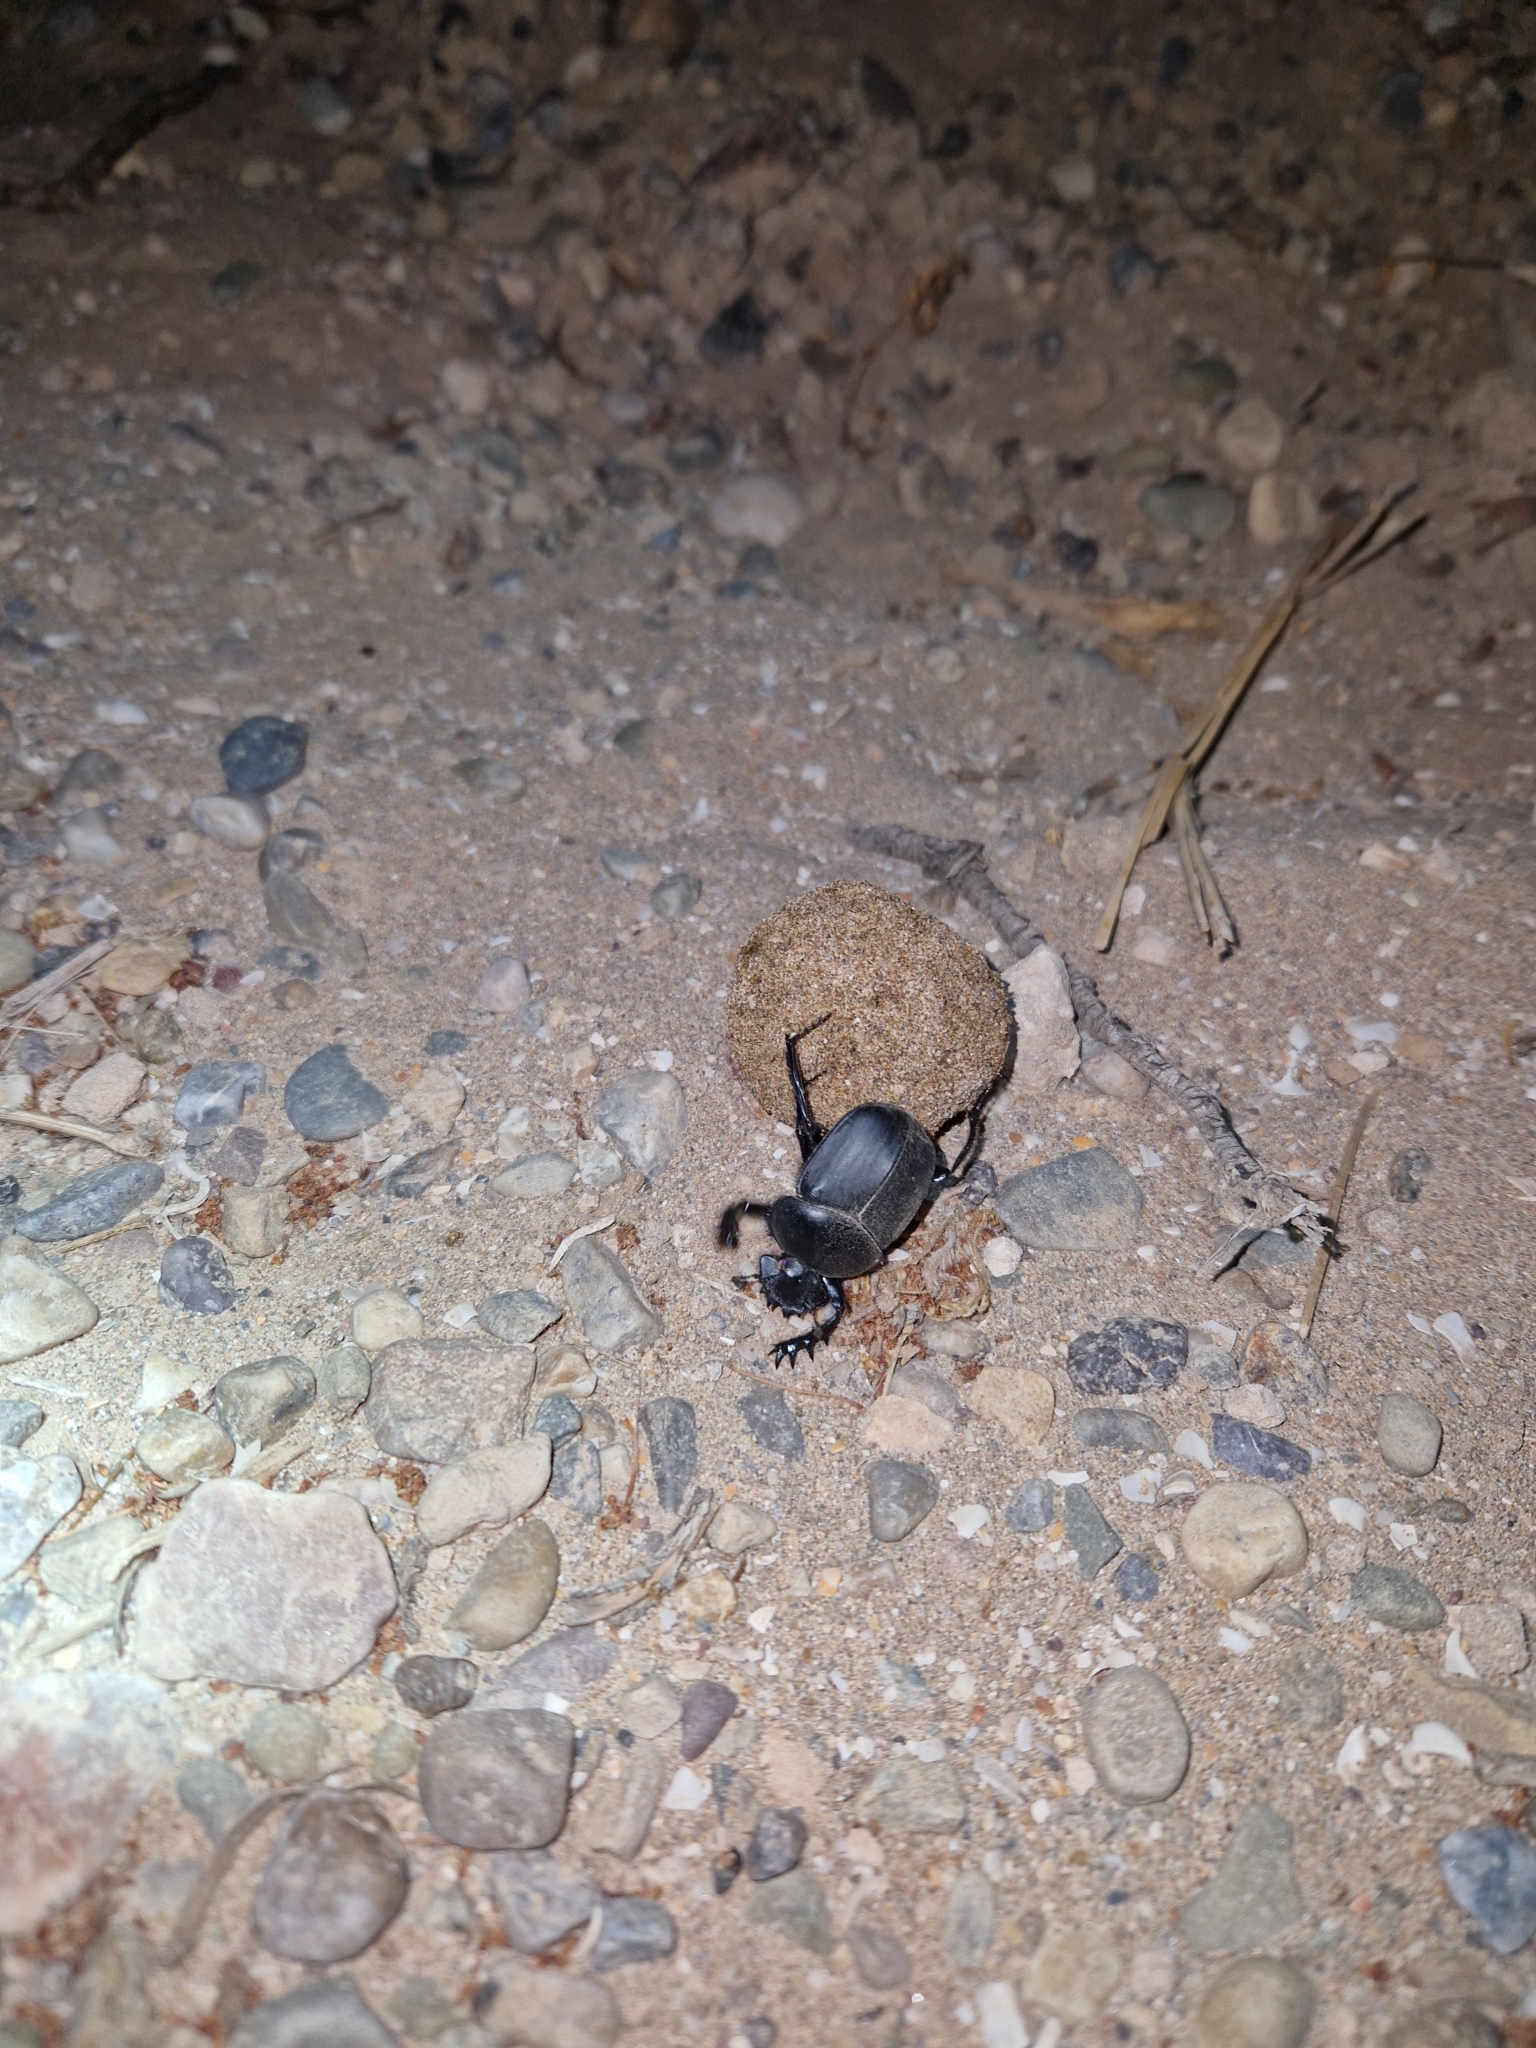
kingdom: Animalia
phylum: Arthropoda
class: Insecta
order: Coleoptera
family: Scarabaeidae
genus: Scarabaeus
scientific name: Scarabaeus sacer
